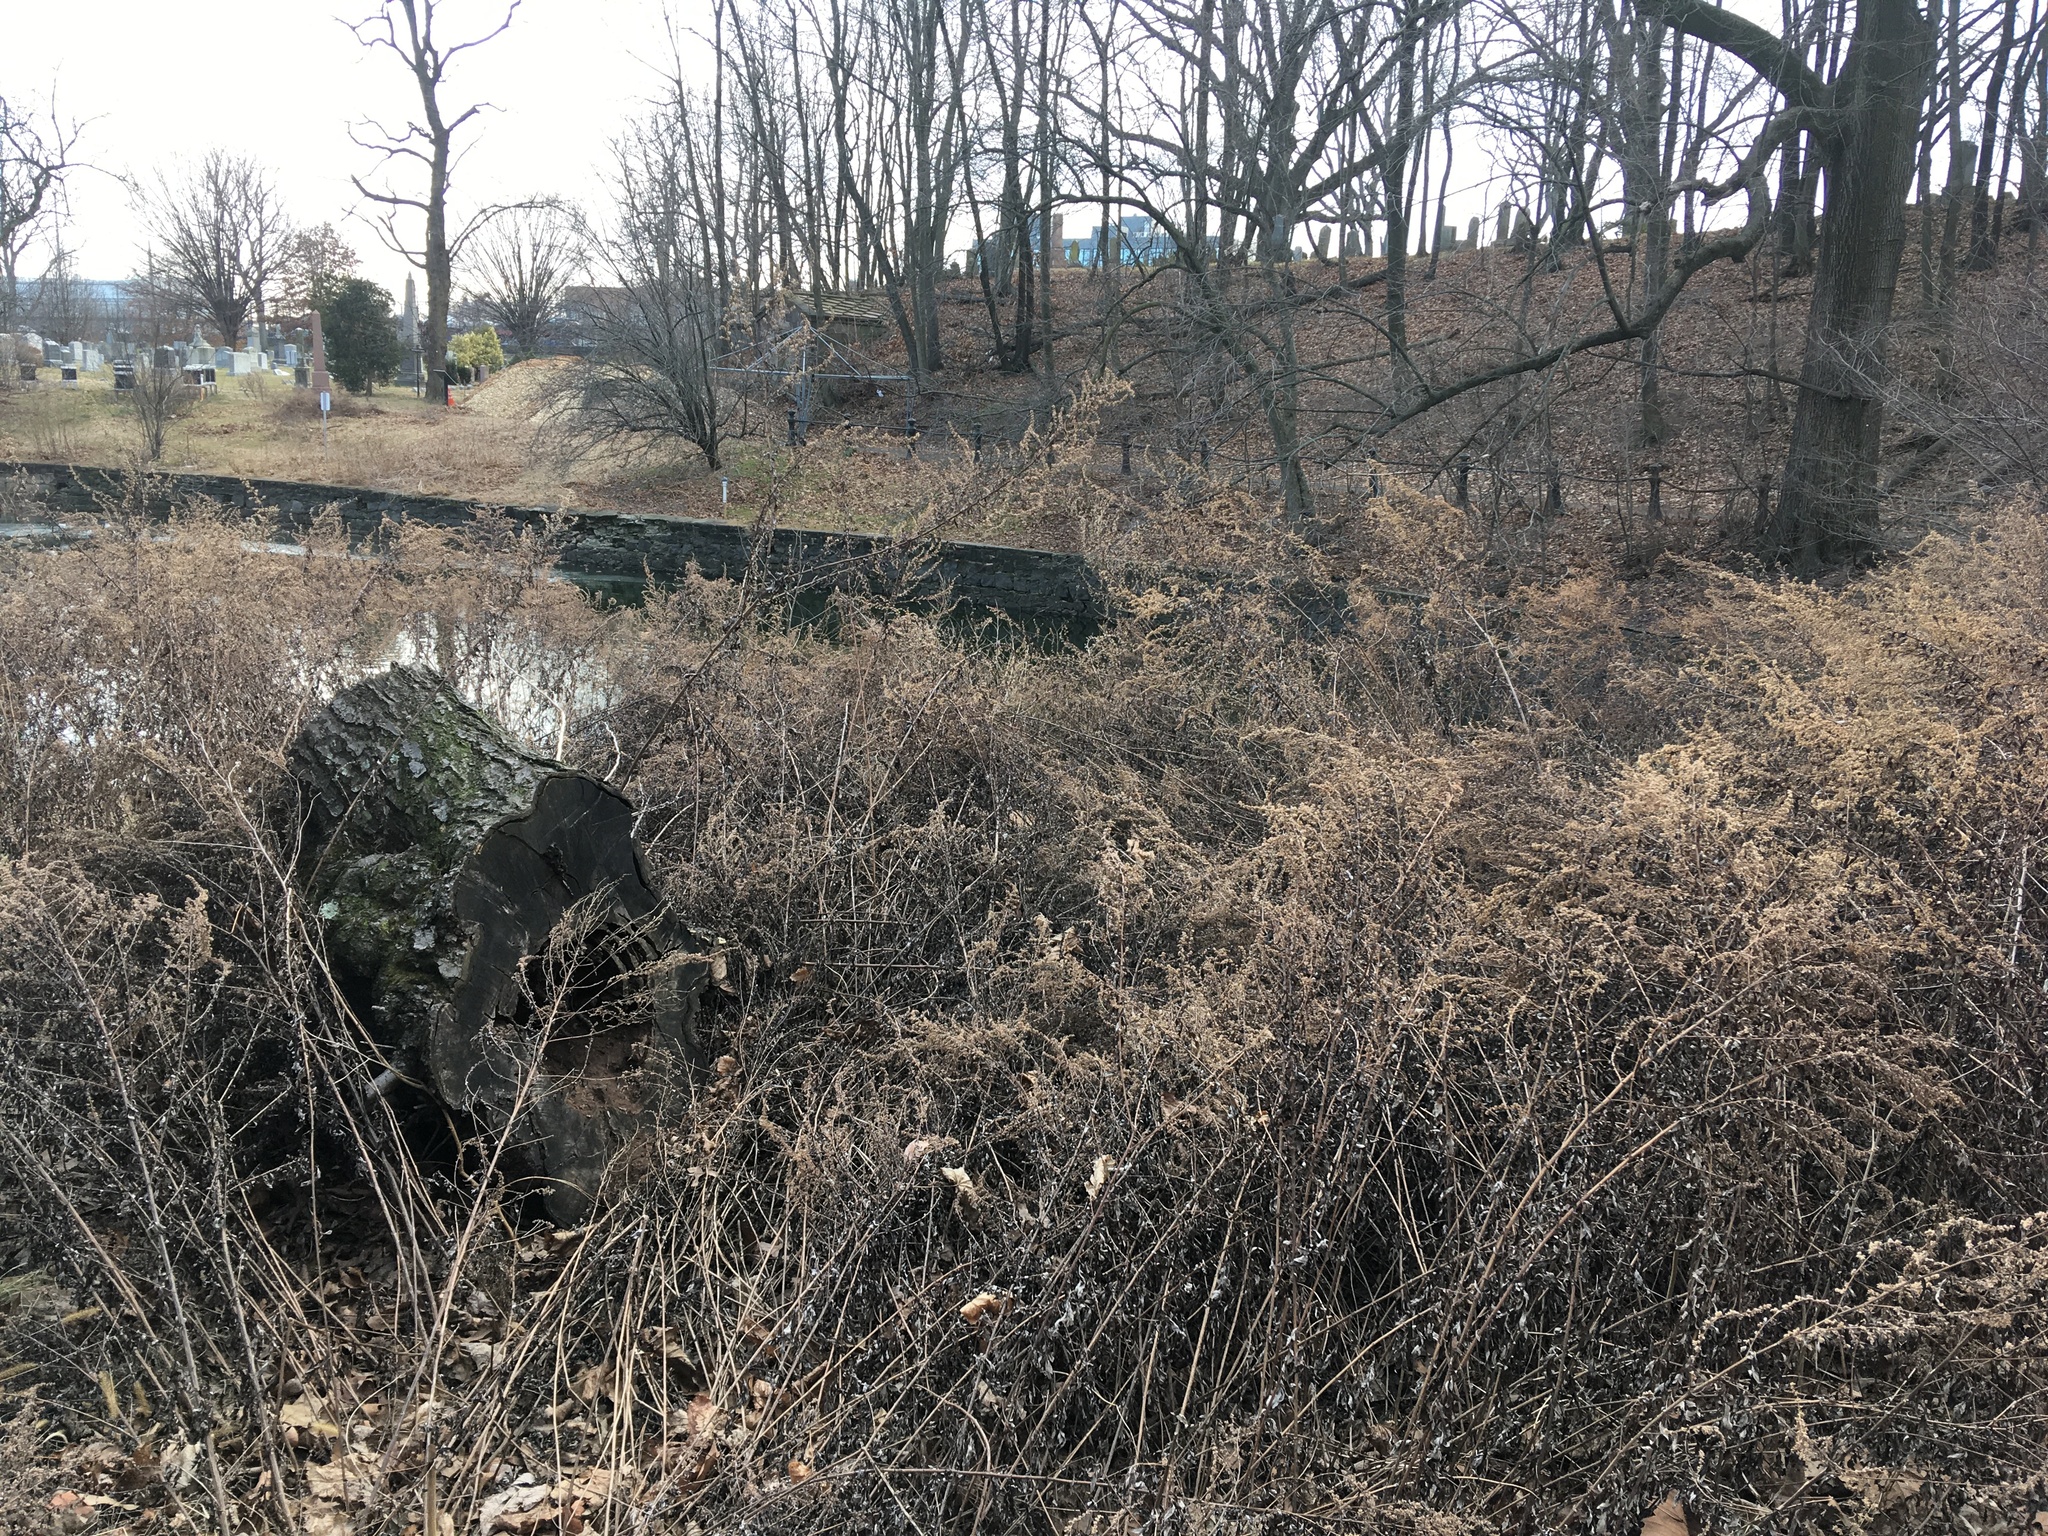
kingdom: Plantae
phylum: Tracheophyta
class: Magnoliopsida
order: Asterales
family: Asteraceae
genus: Artemisia
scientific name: Artemisia vulgaris
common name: Mugwort
